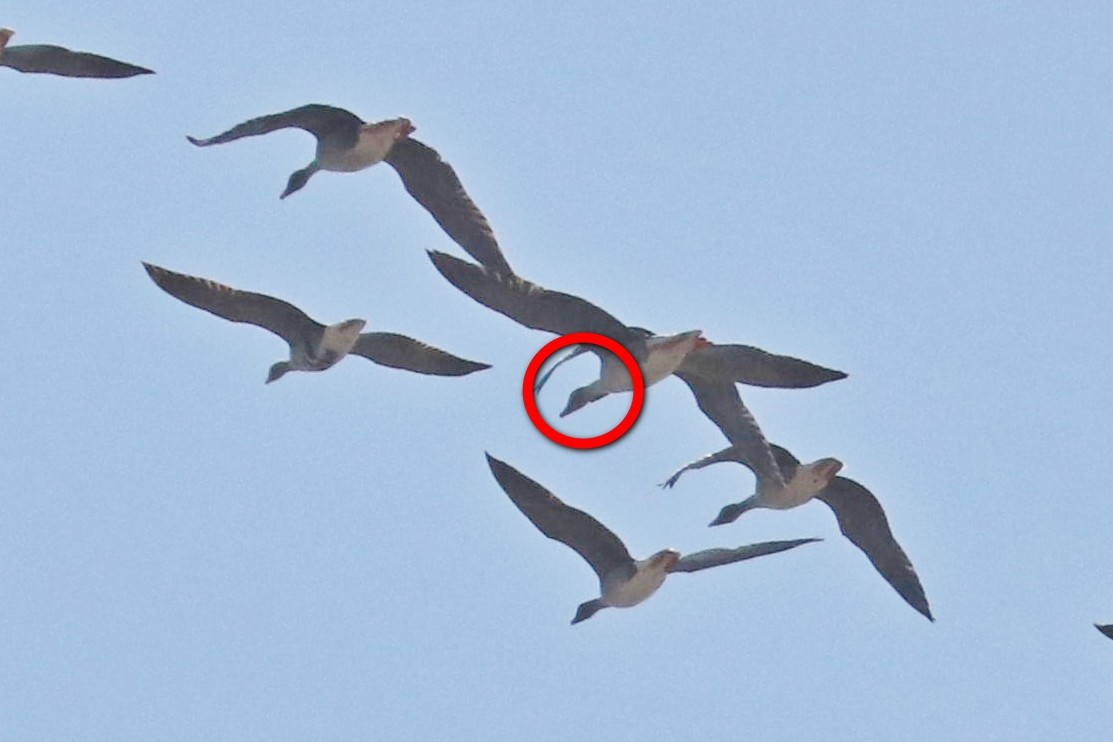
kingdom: Animalia
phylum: Chordata
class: Aves
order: Anseriformes
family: Anatidae
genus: Anser
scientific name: Anser fabalis
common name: Bean goose
